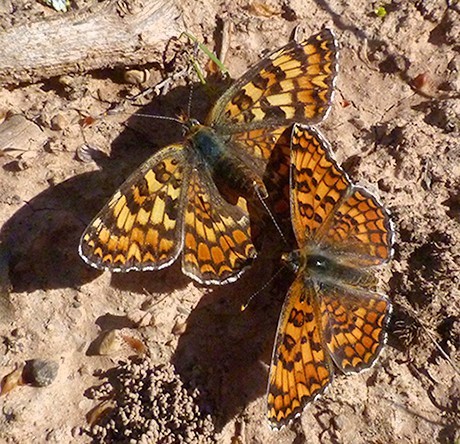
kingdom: Animalia
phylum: Arthropoda
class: Insecta
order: Lepidoptera
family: Nymphalidae
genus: Melitaea
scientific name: Melitaea phoebe
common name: Knapweed fritillary
